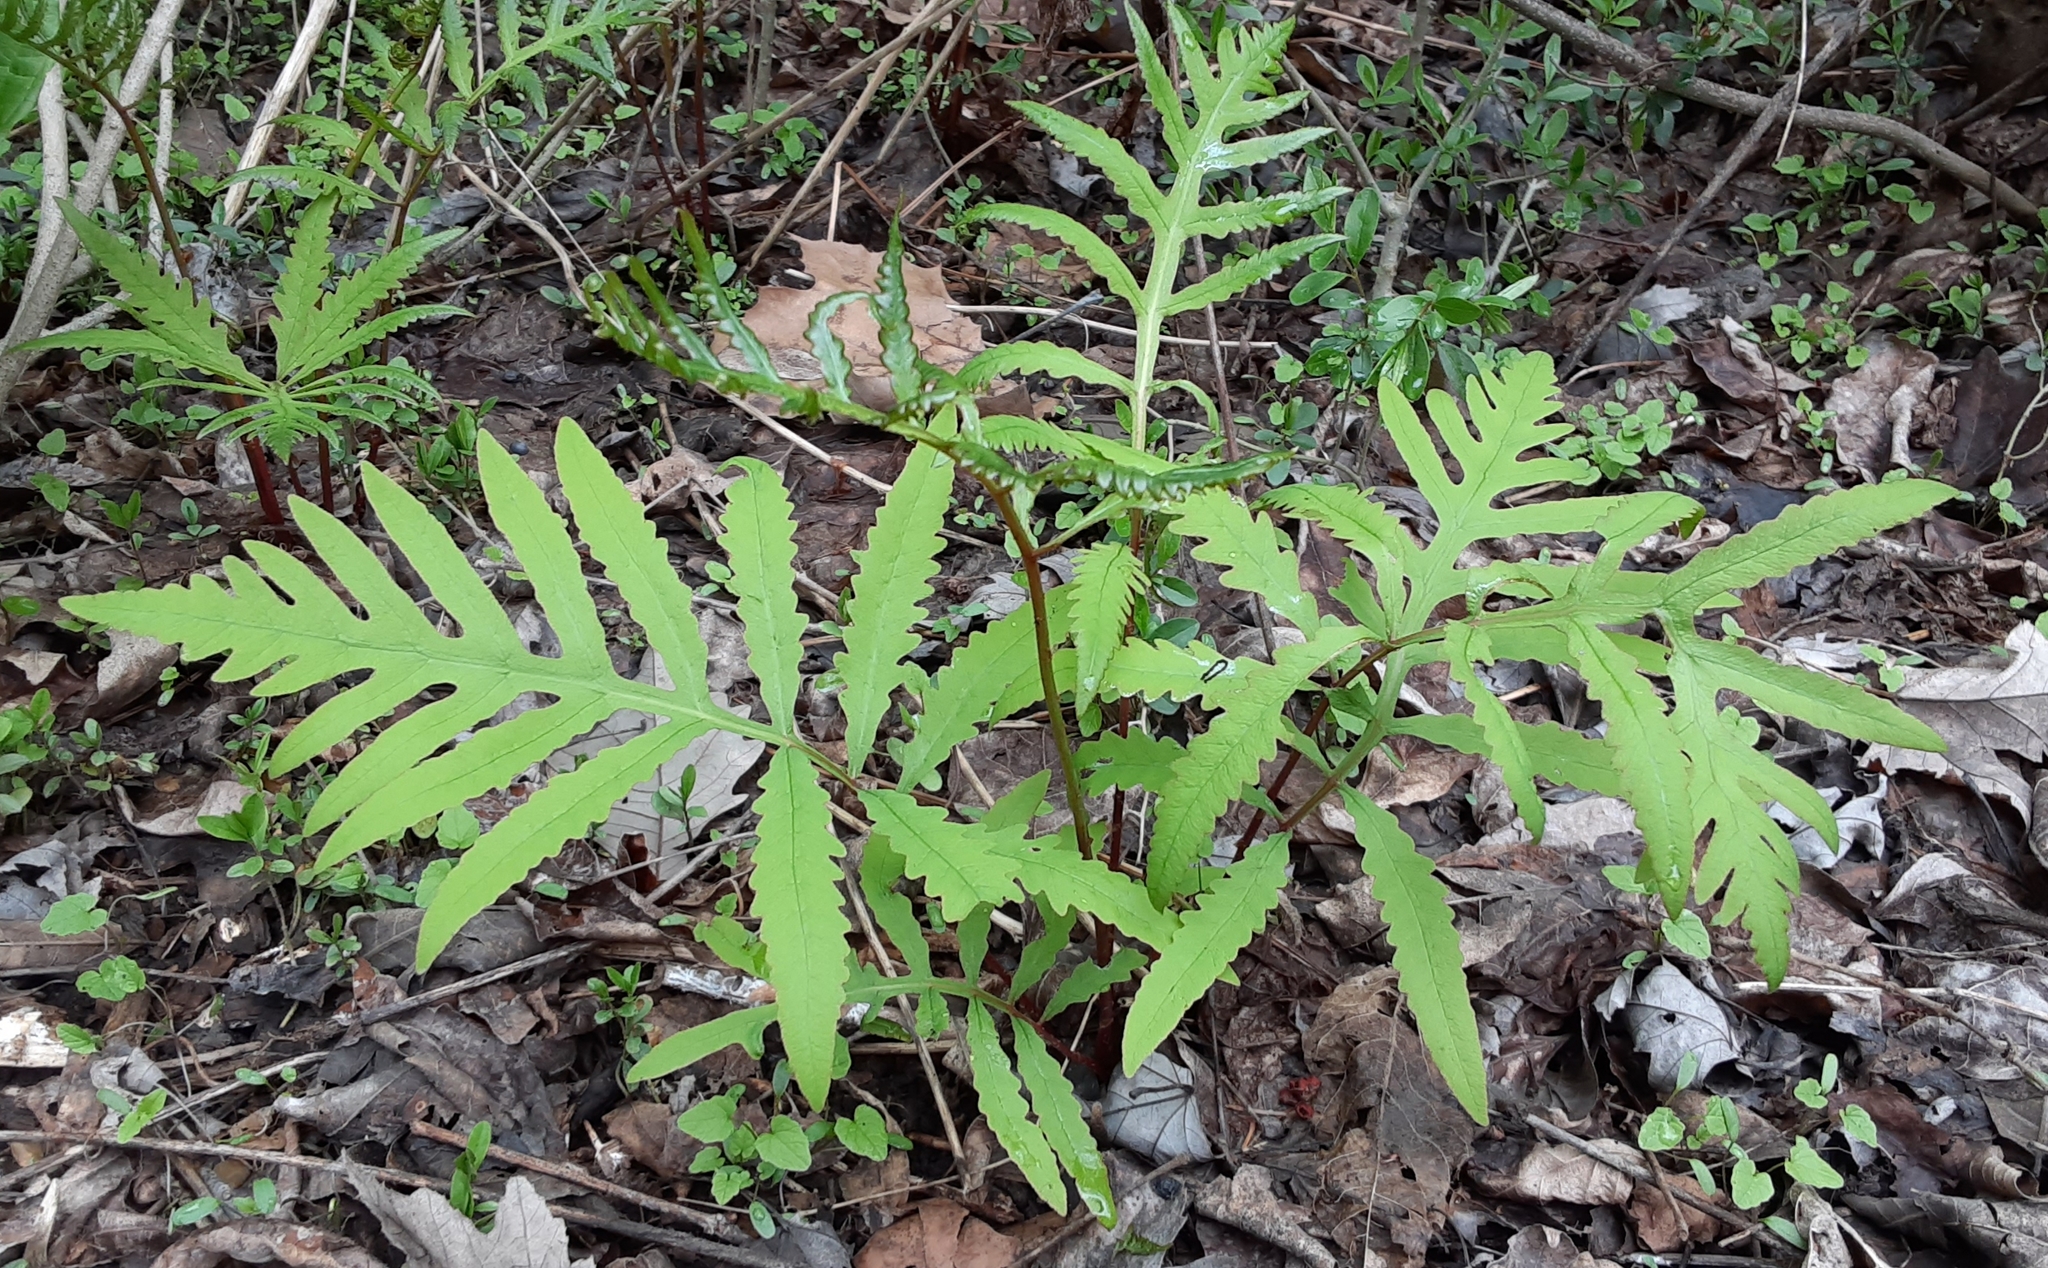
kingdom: Plantae
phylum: Tracheophyta
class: Polypodiopsida
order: Polypodiales
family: Onocleaceae
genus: Onoclea
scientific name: Onoclea sensibilis
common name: Sensitive fern
